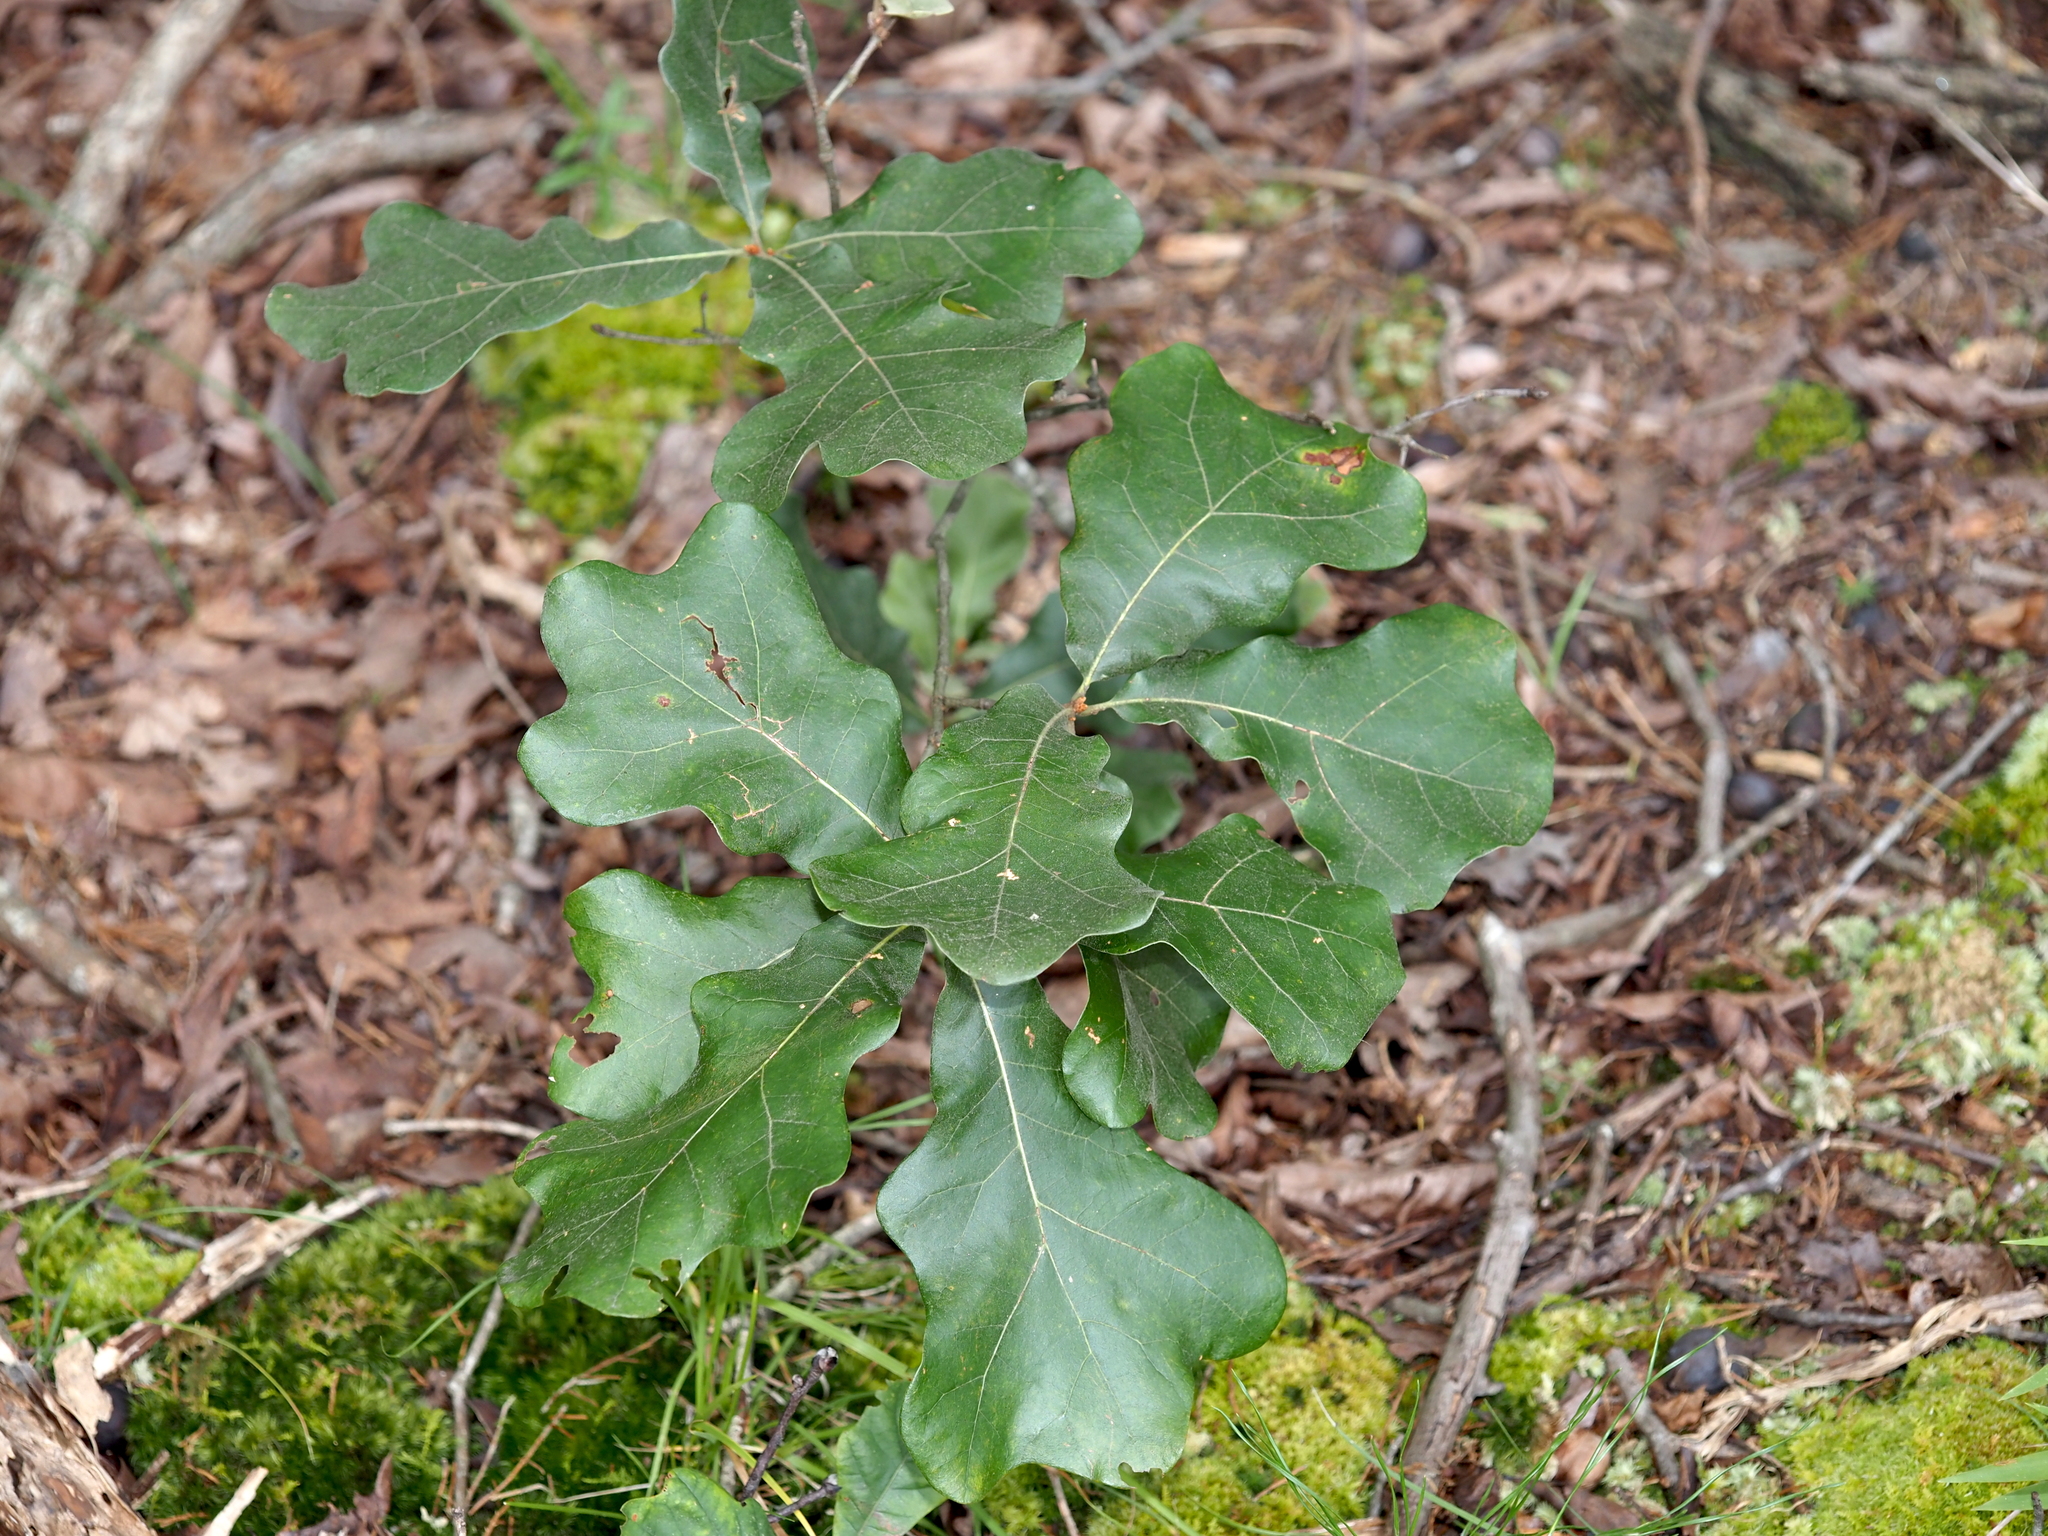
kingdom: Plantae
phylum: Tracheophyta
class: Magnoliopsida
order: Fagales
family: Fagaceae
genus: Quercus
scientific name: Quercus marilandica
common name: Blackjack oak
